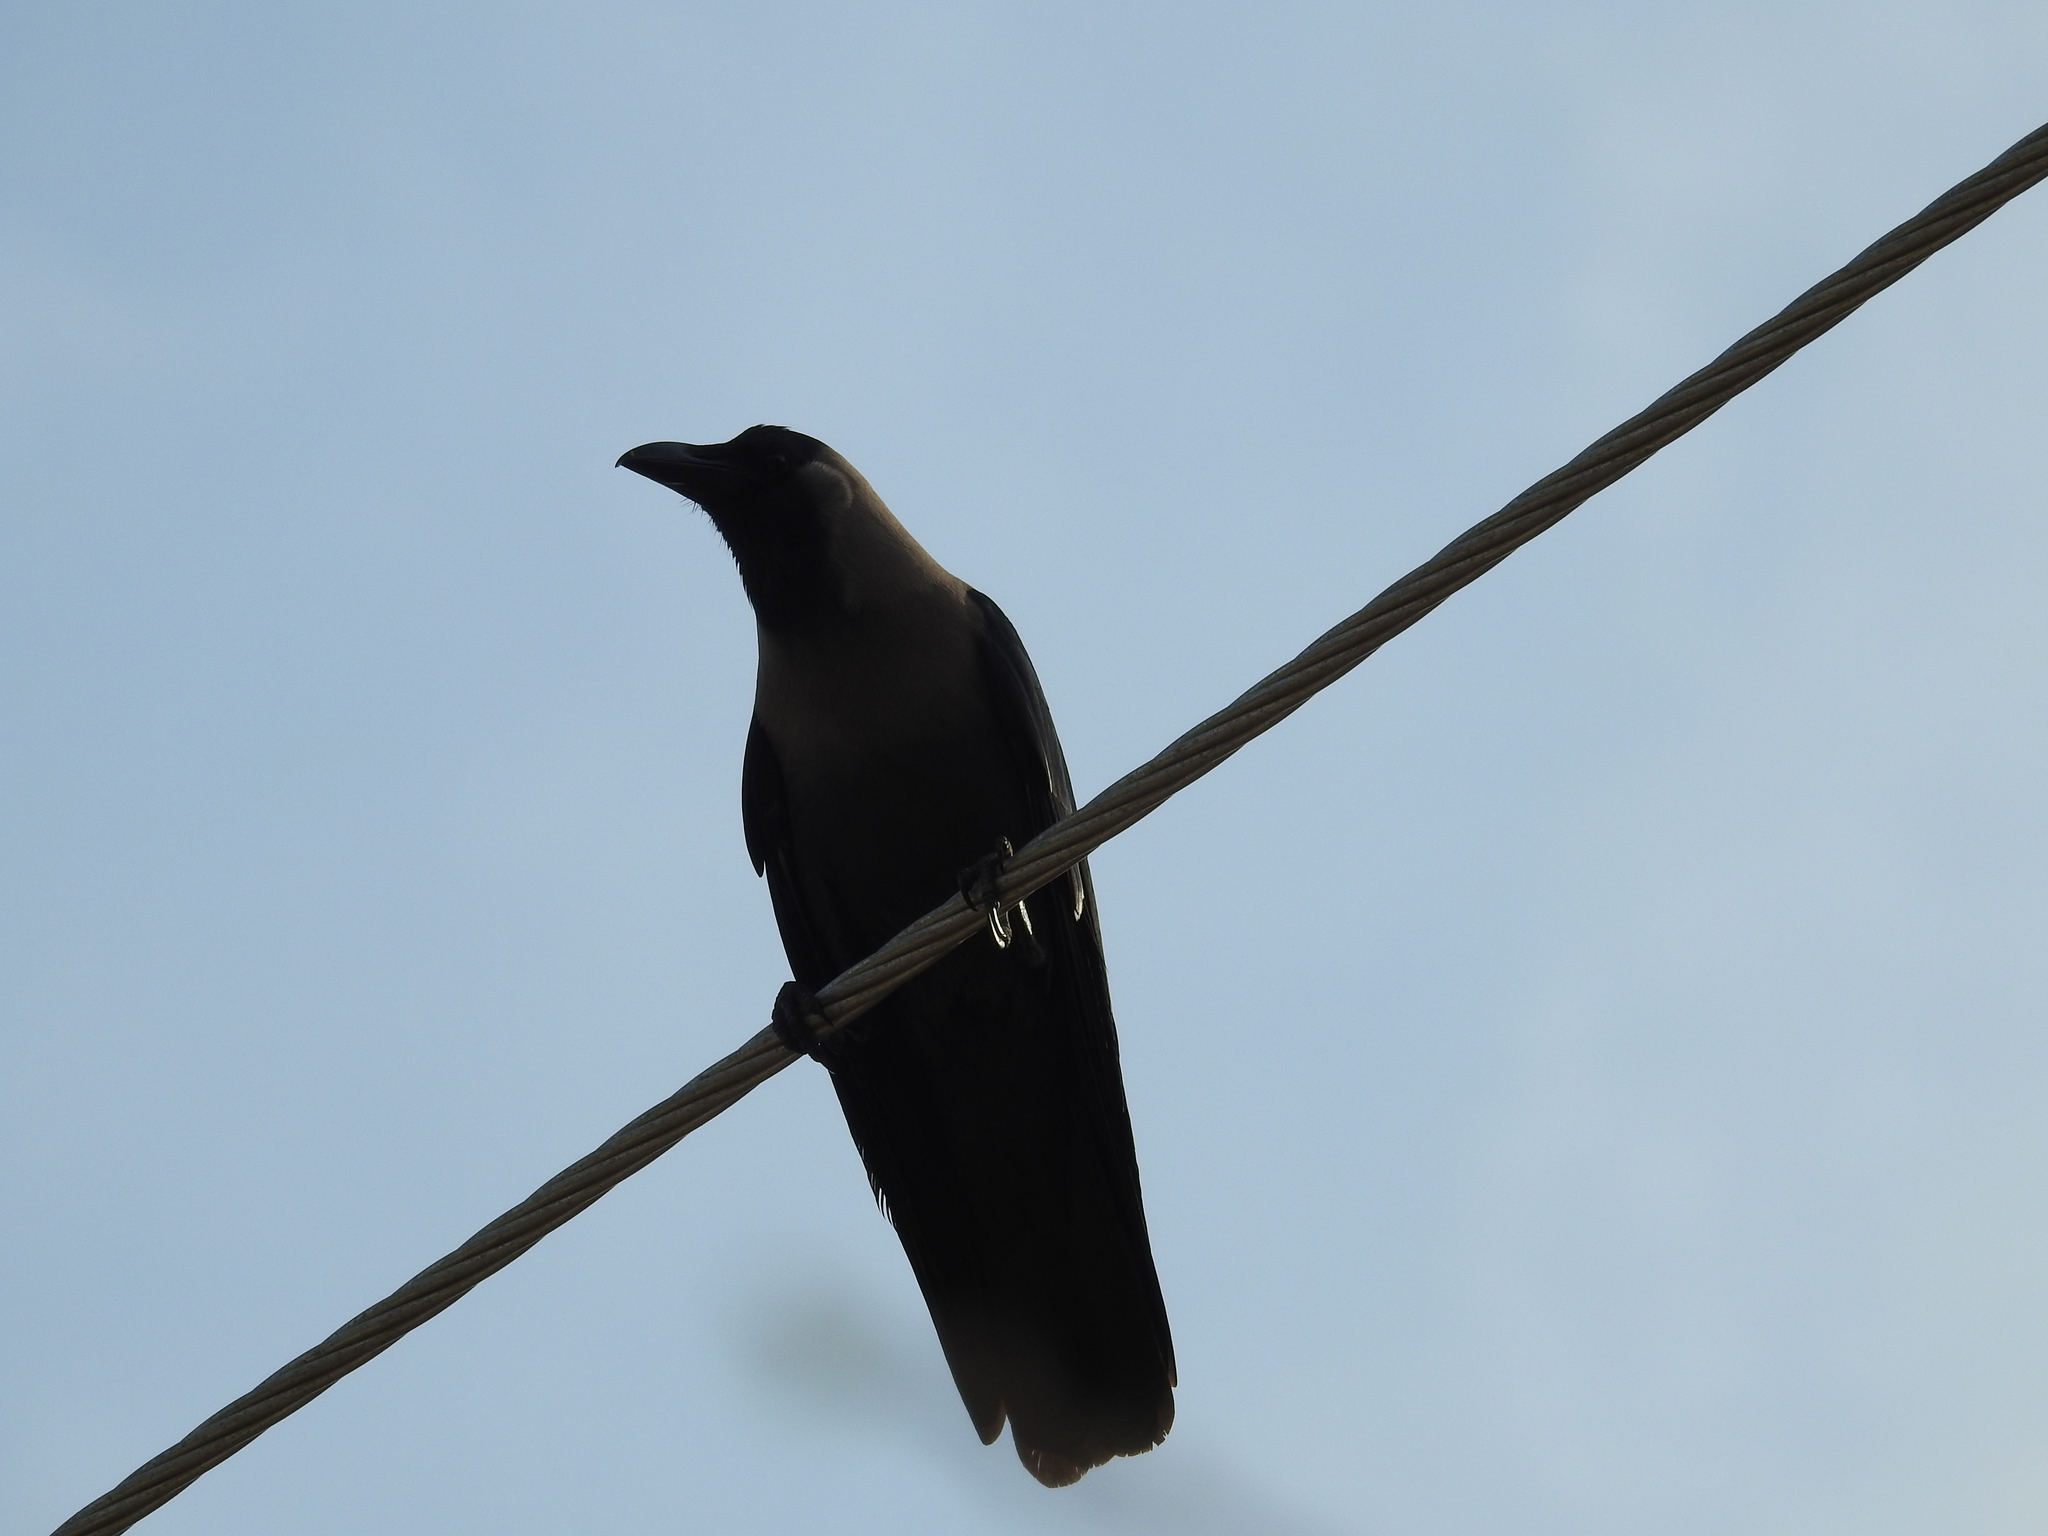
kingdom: Animalia
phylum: Chordata
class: Aves
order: Passeriformes
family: Corvidae
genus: Corvus
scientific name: Corvus splendens
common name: House crow
